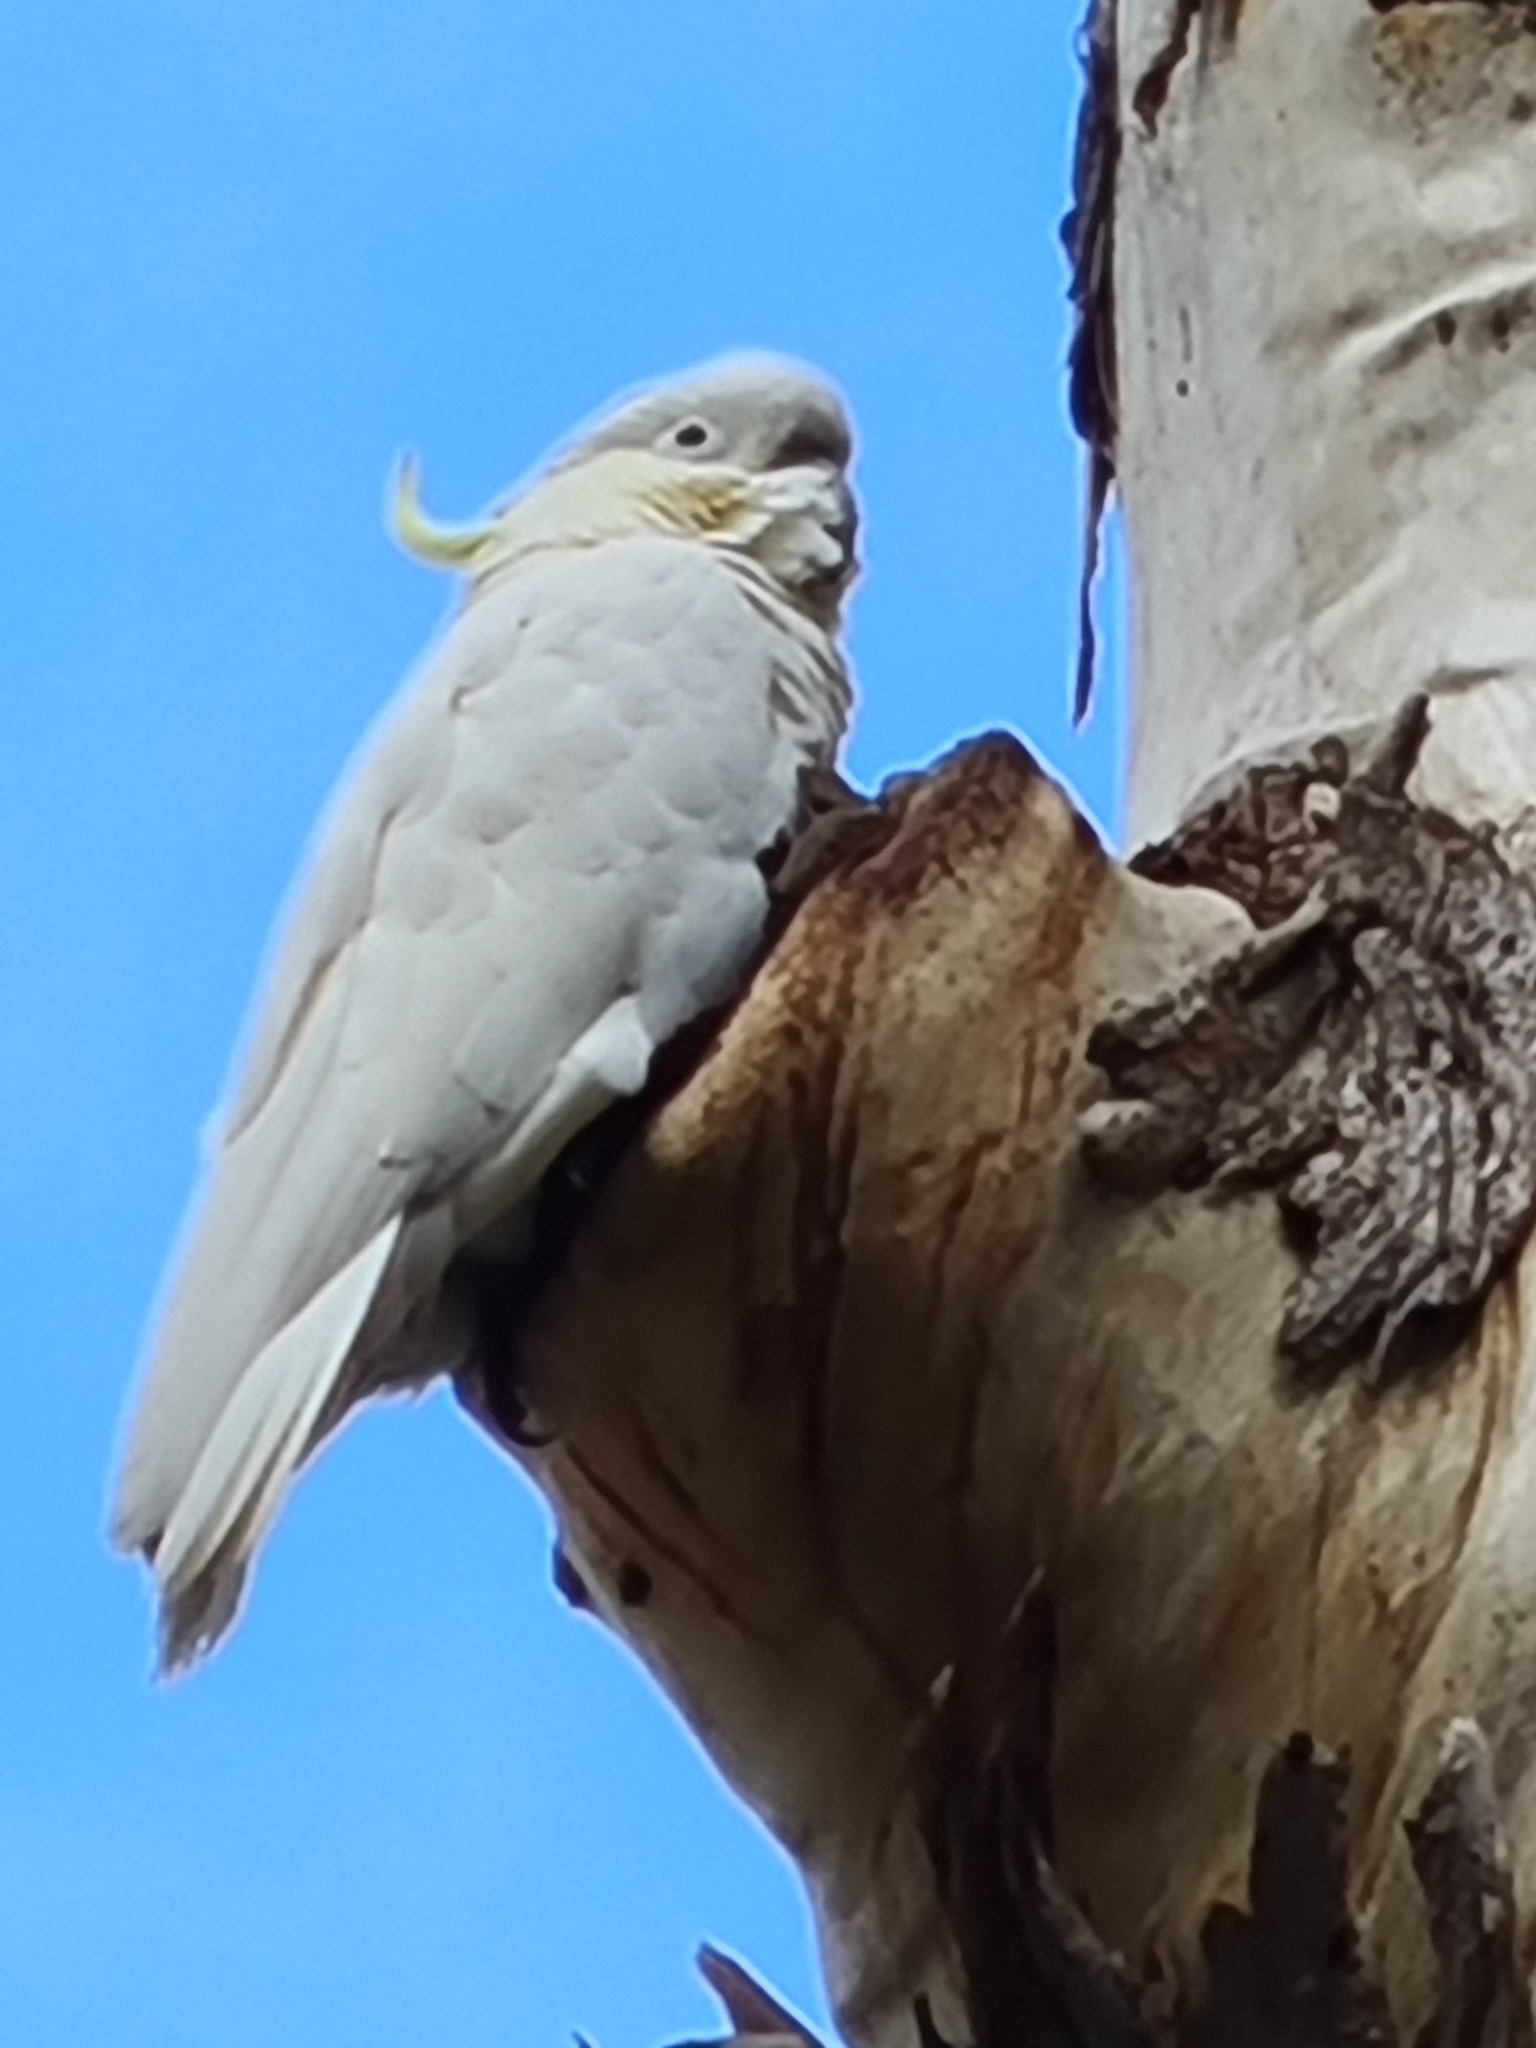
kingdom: Animalia
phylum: Chordata
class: Aves
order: Psittaciformes
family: Psittacidae
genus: Cacatua
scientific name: Cacatua galerita
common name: Sulphur-crested cockatoo
